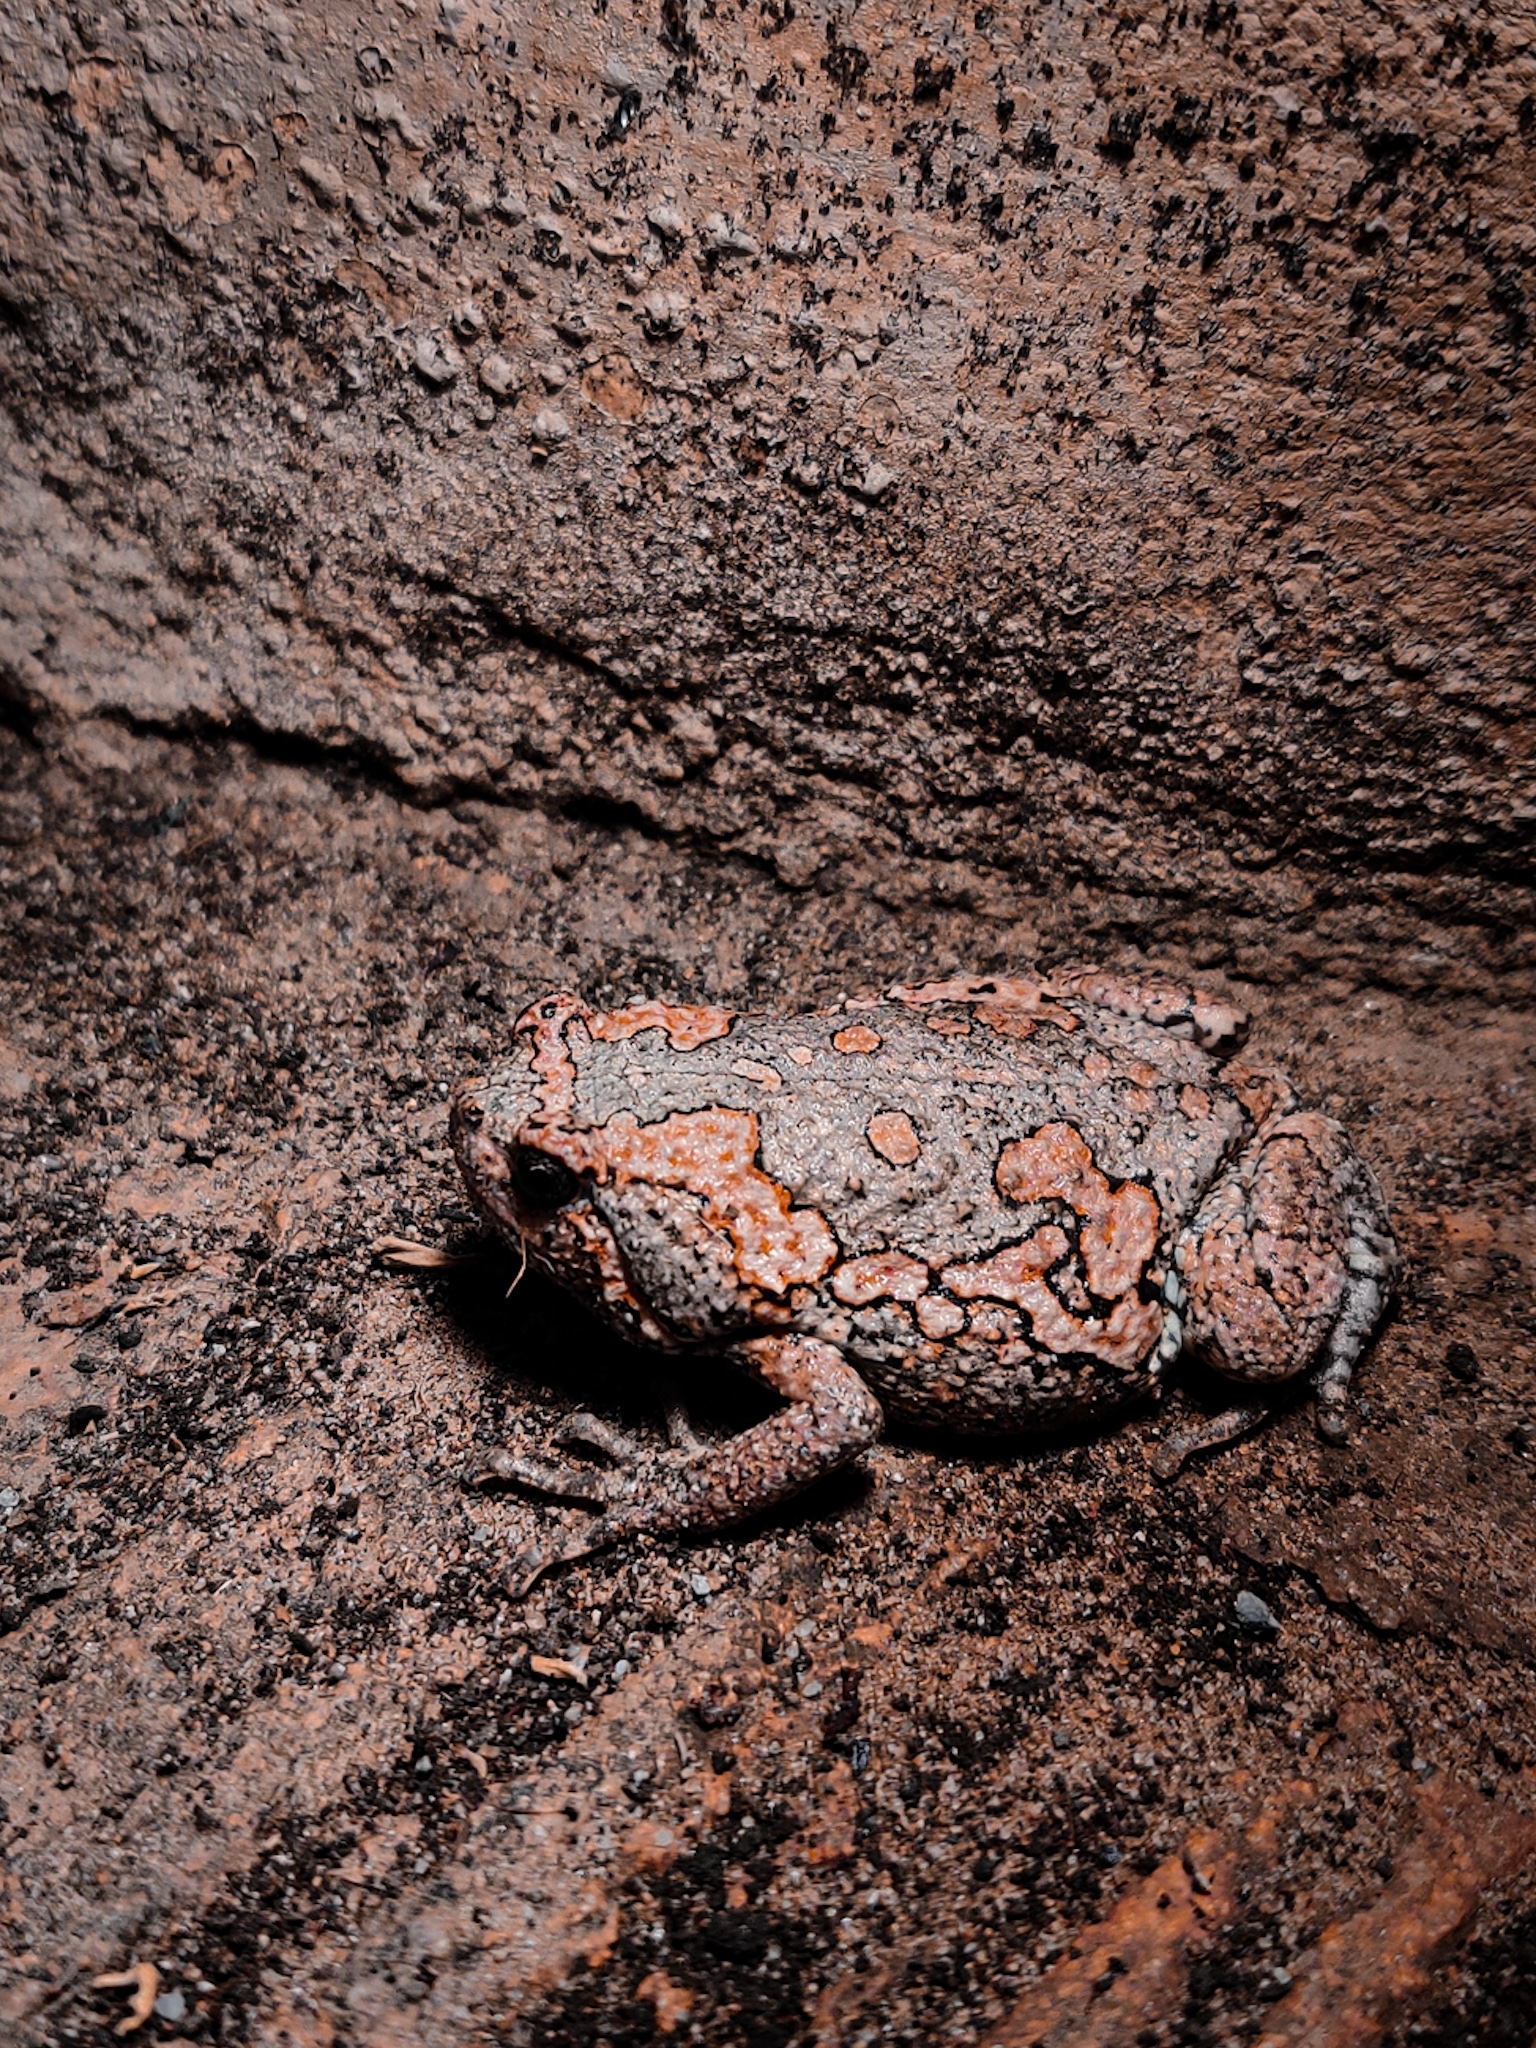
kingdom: Animalia
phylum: Chordata
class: Amphibia
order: Anura
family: Microhylidae
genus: Uperodon
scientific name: Uperodon taprobanicus
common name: Ceylon kaloula
